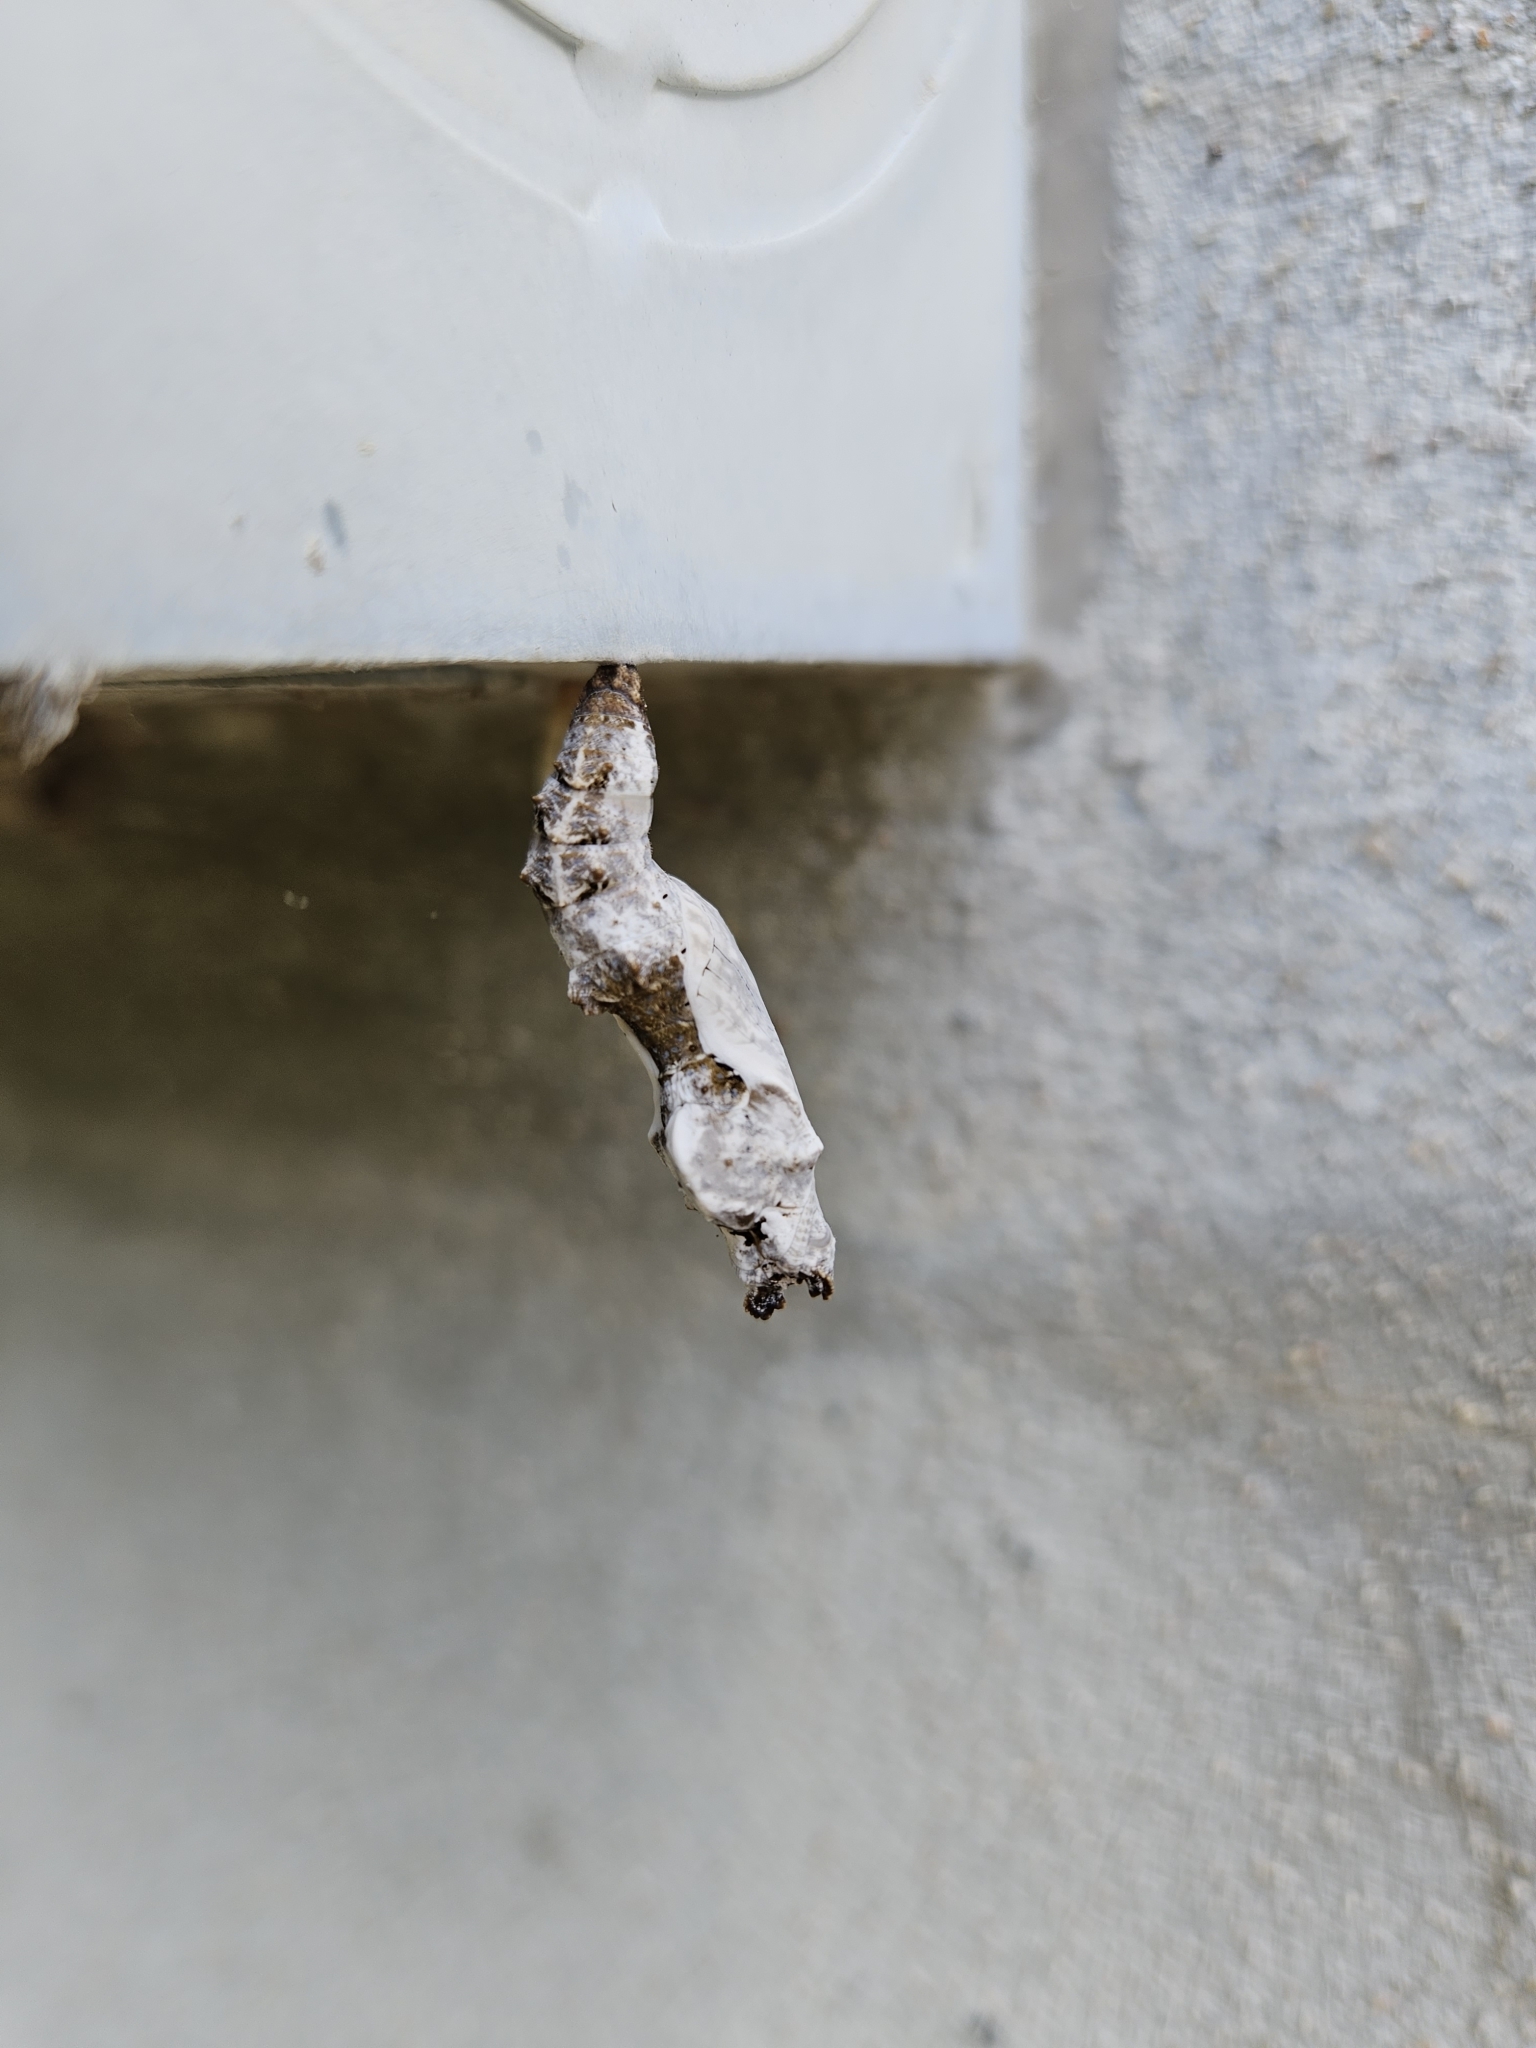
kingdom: Animalia
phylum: Arthropoda
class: Insecta
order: Lepidoptera
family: Nymphalidae
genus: Dione
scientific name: Dione vanillae
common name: Gulf fritillary
